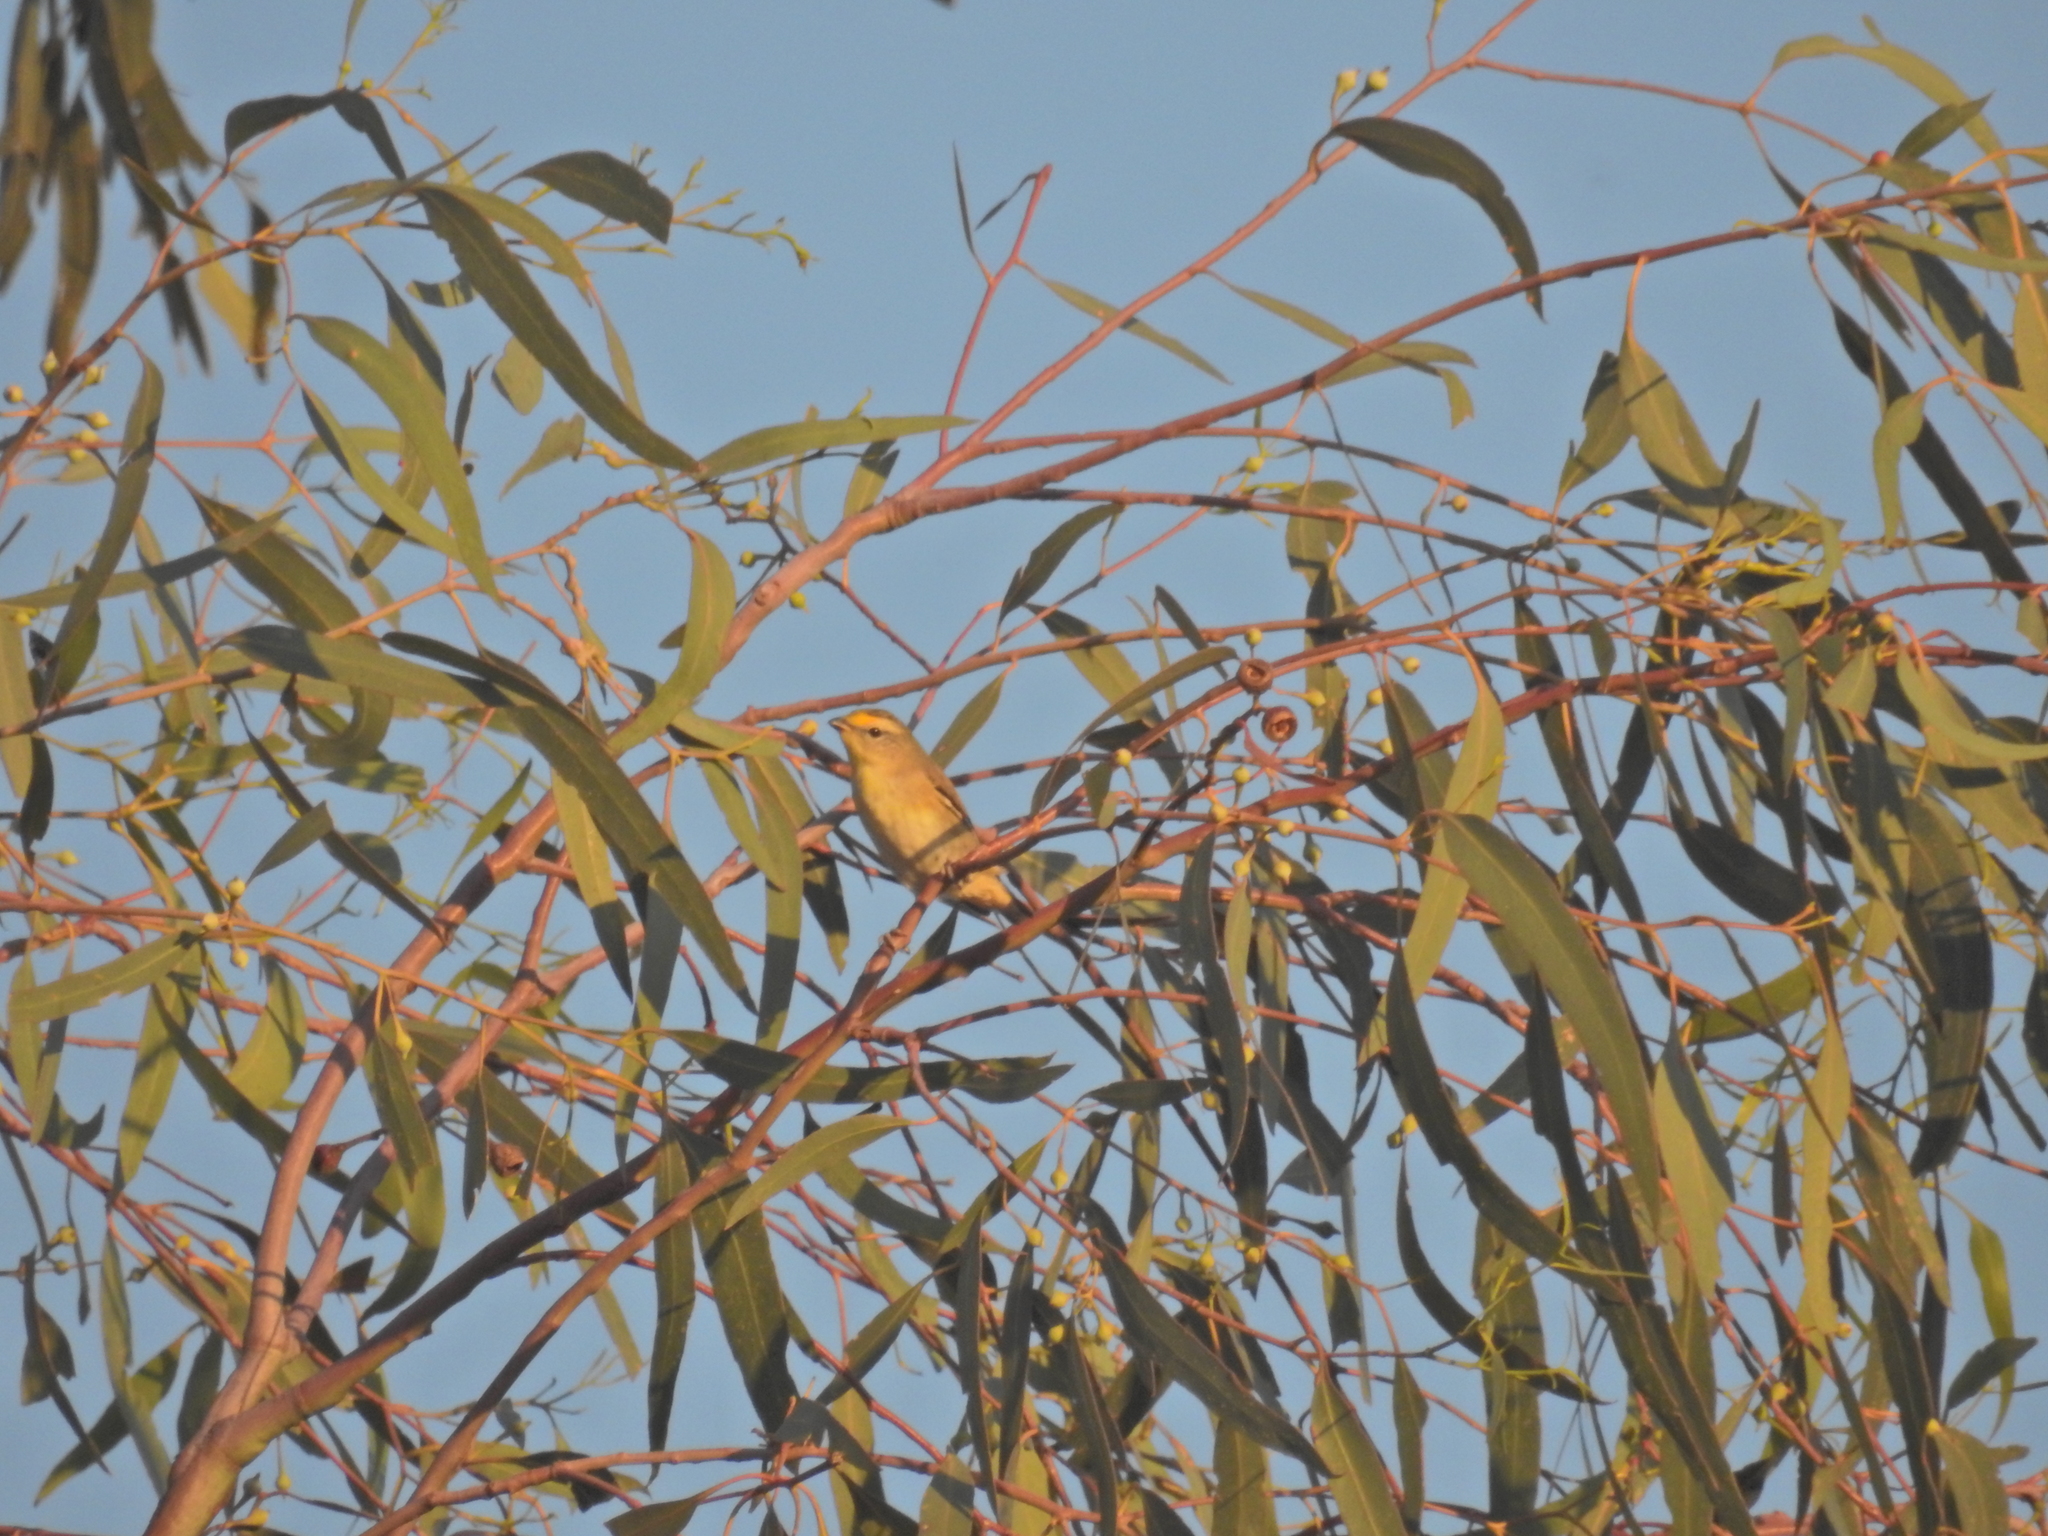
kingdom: Animalia
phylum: Chordata
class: Aves
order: Passeriformes
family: Pardalotidae
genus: Pardalotus
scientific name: Pardalotus striatus
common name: Striated pardalote
